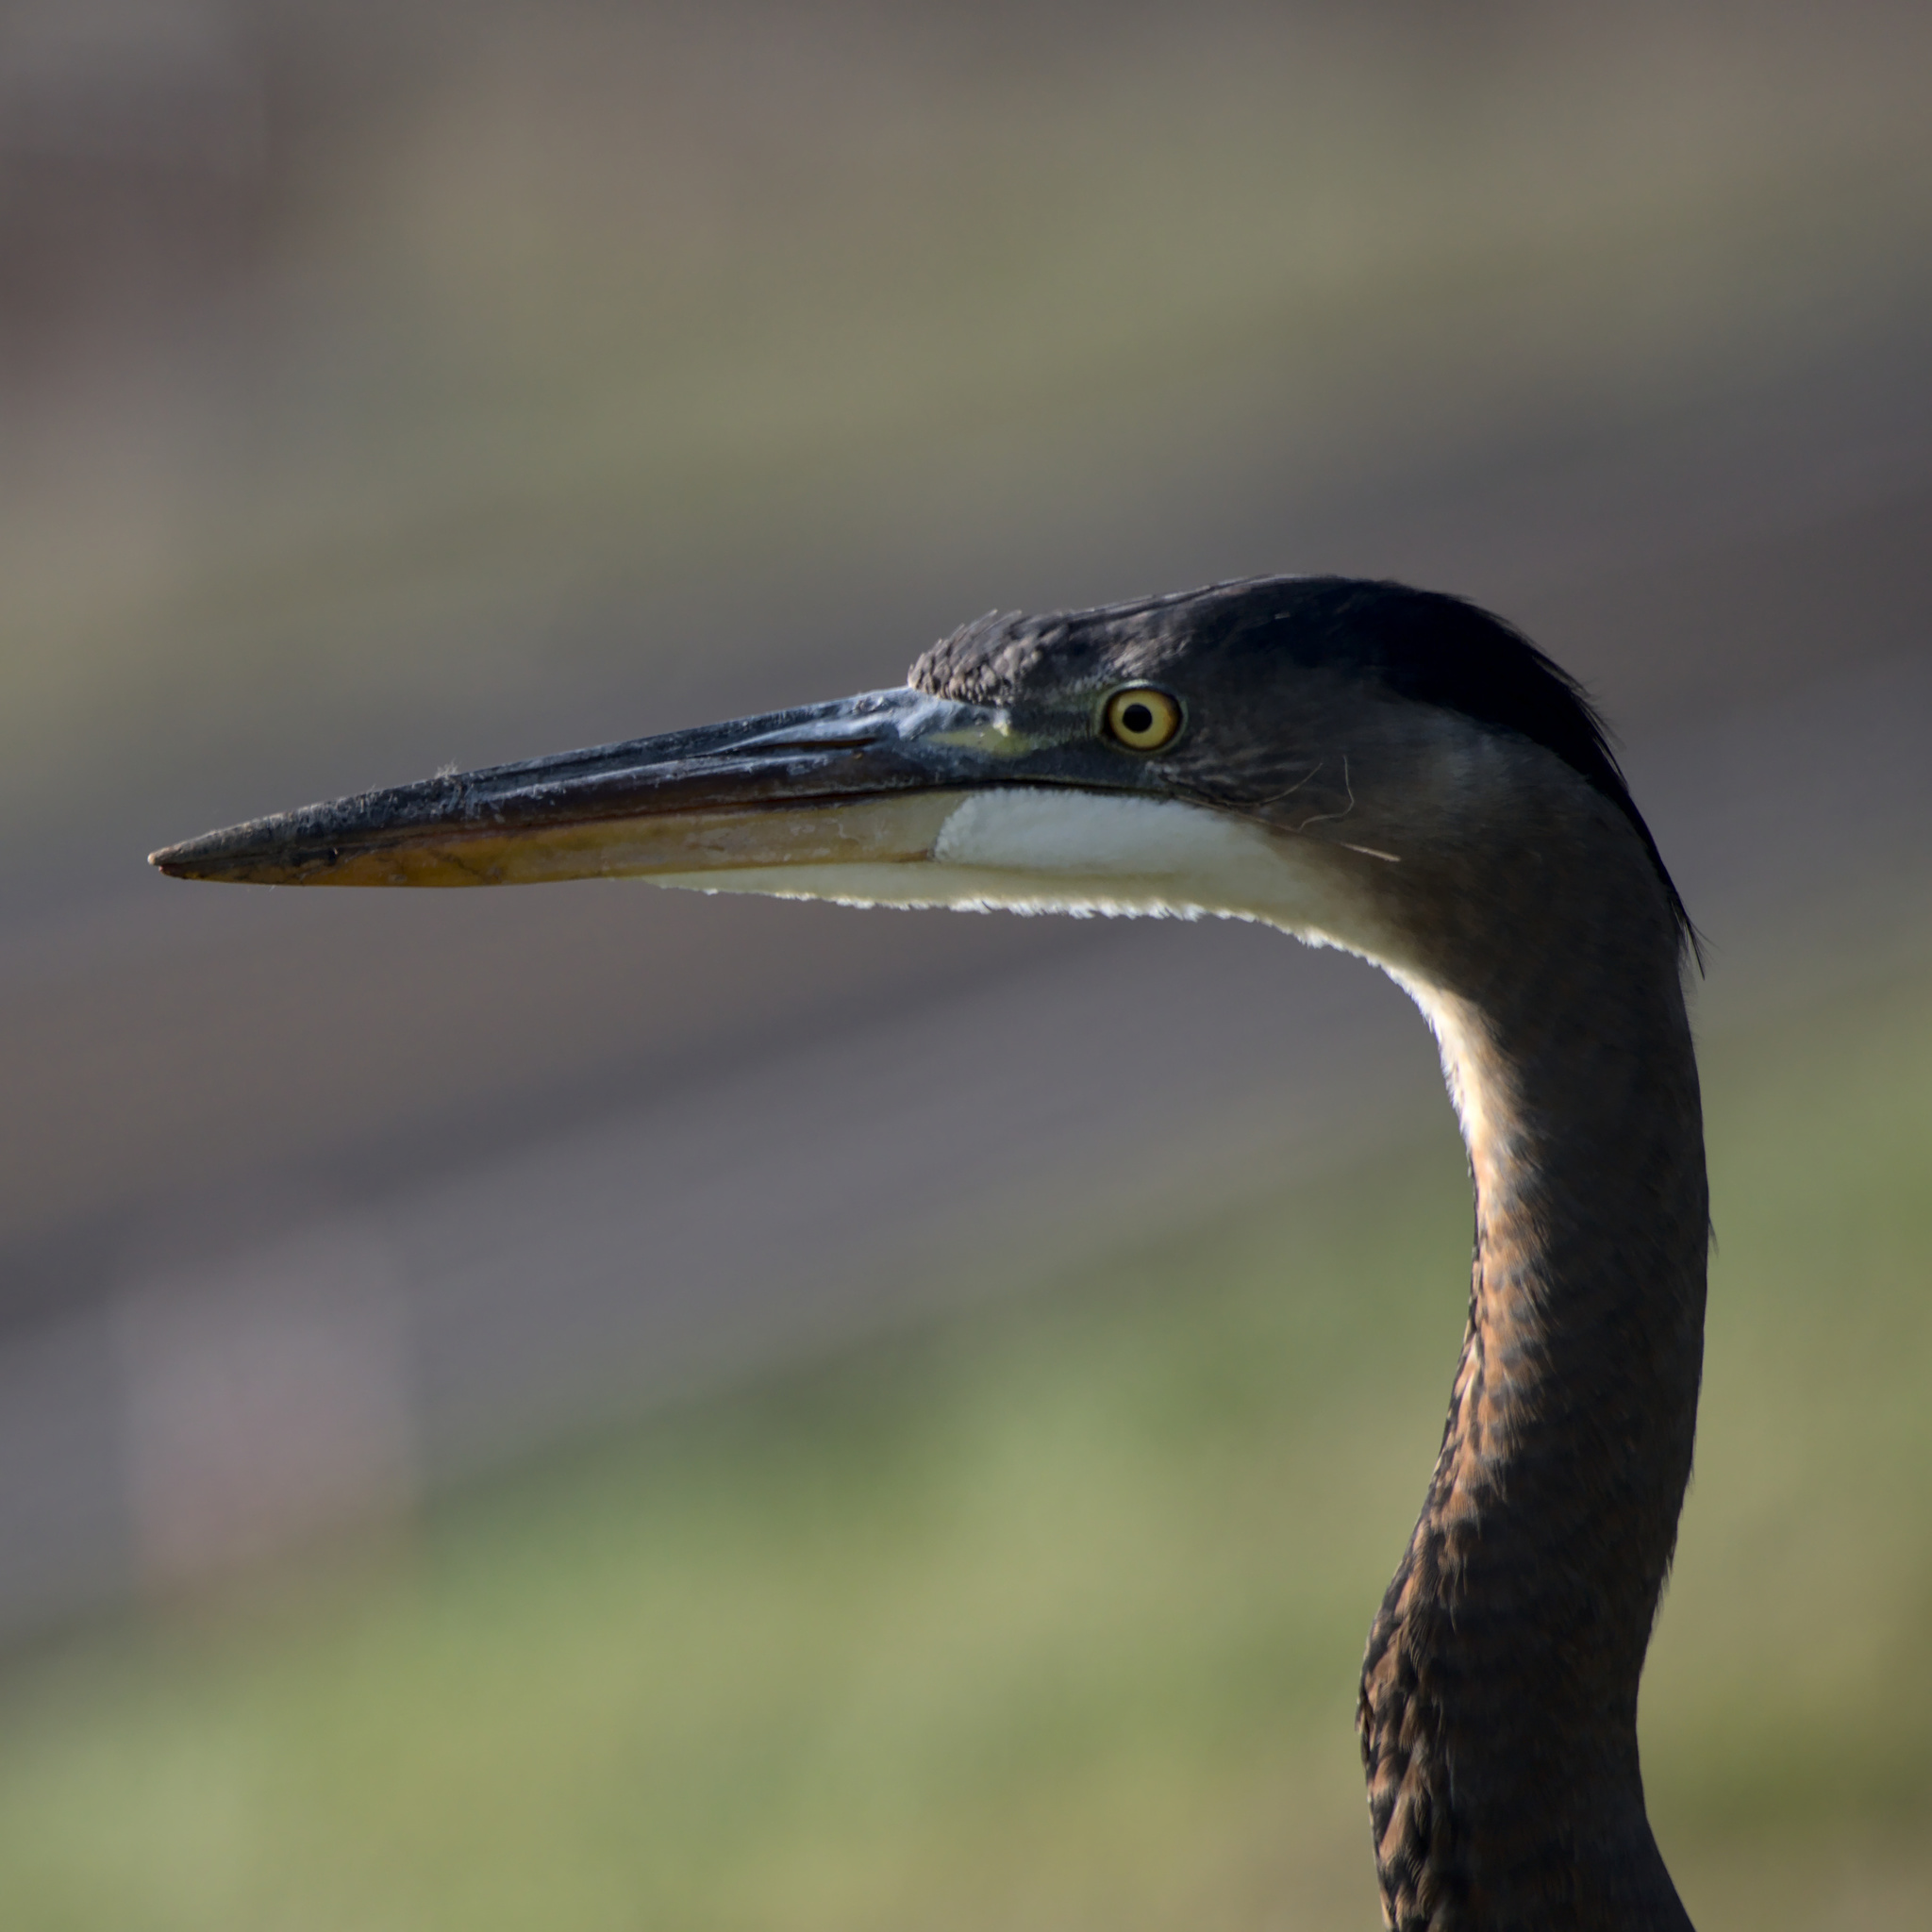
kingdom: Animalia
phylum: Chordata
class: Aves
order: Pelecaniformes
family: Ardeidae
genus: Ardea
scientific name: Ardea herodias
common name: Great blue heron
